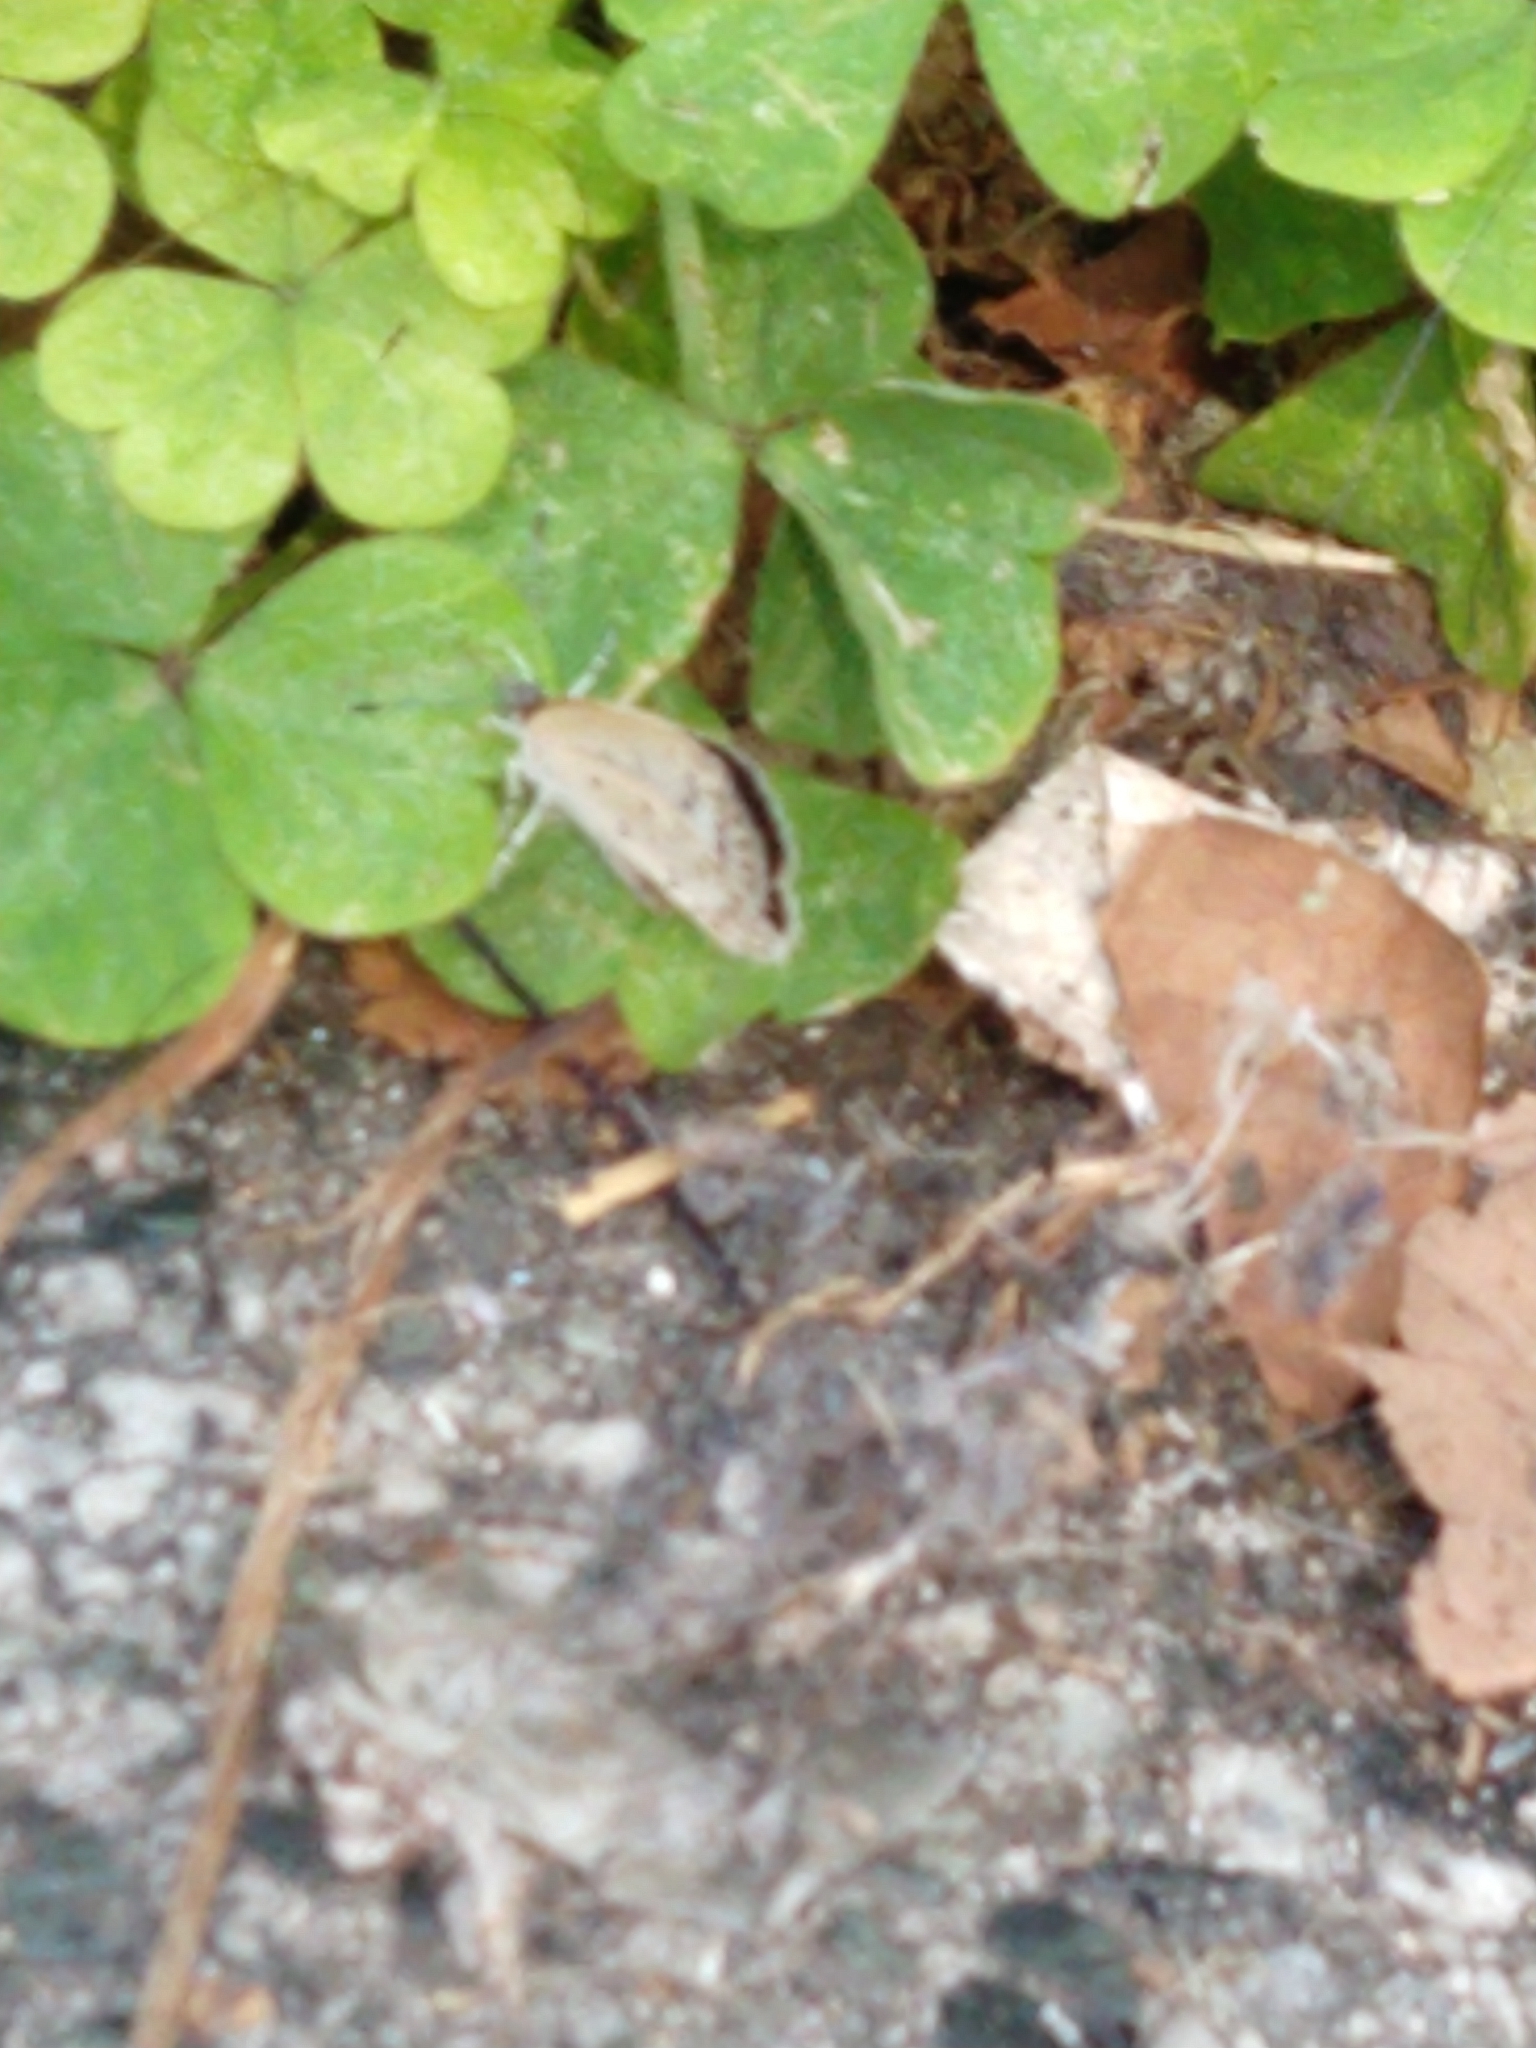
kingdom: Animalia
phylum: Arthropoda
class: Insecta
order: Lepidoptera
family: Lycaenidae
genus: Pseudozizeeria
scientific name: Pseudozizeeria maha
